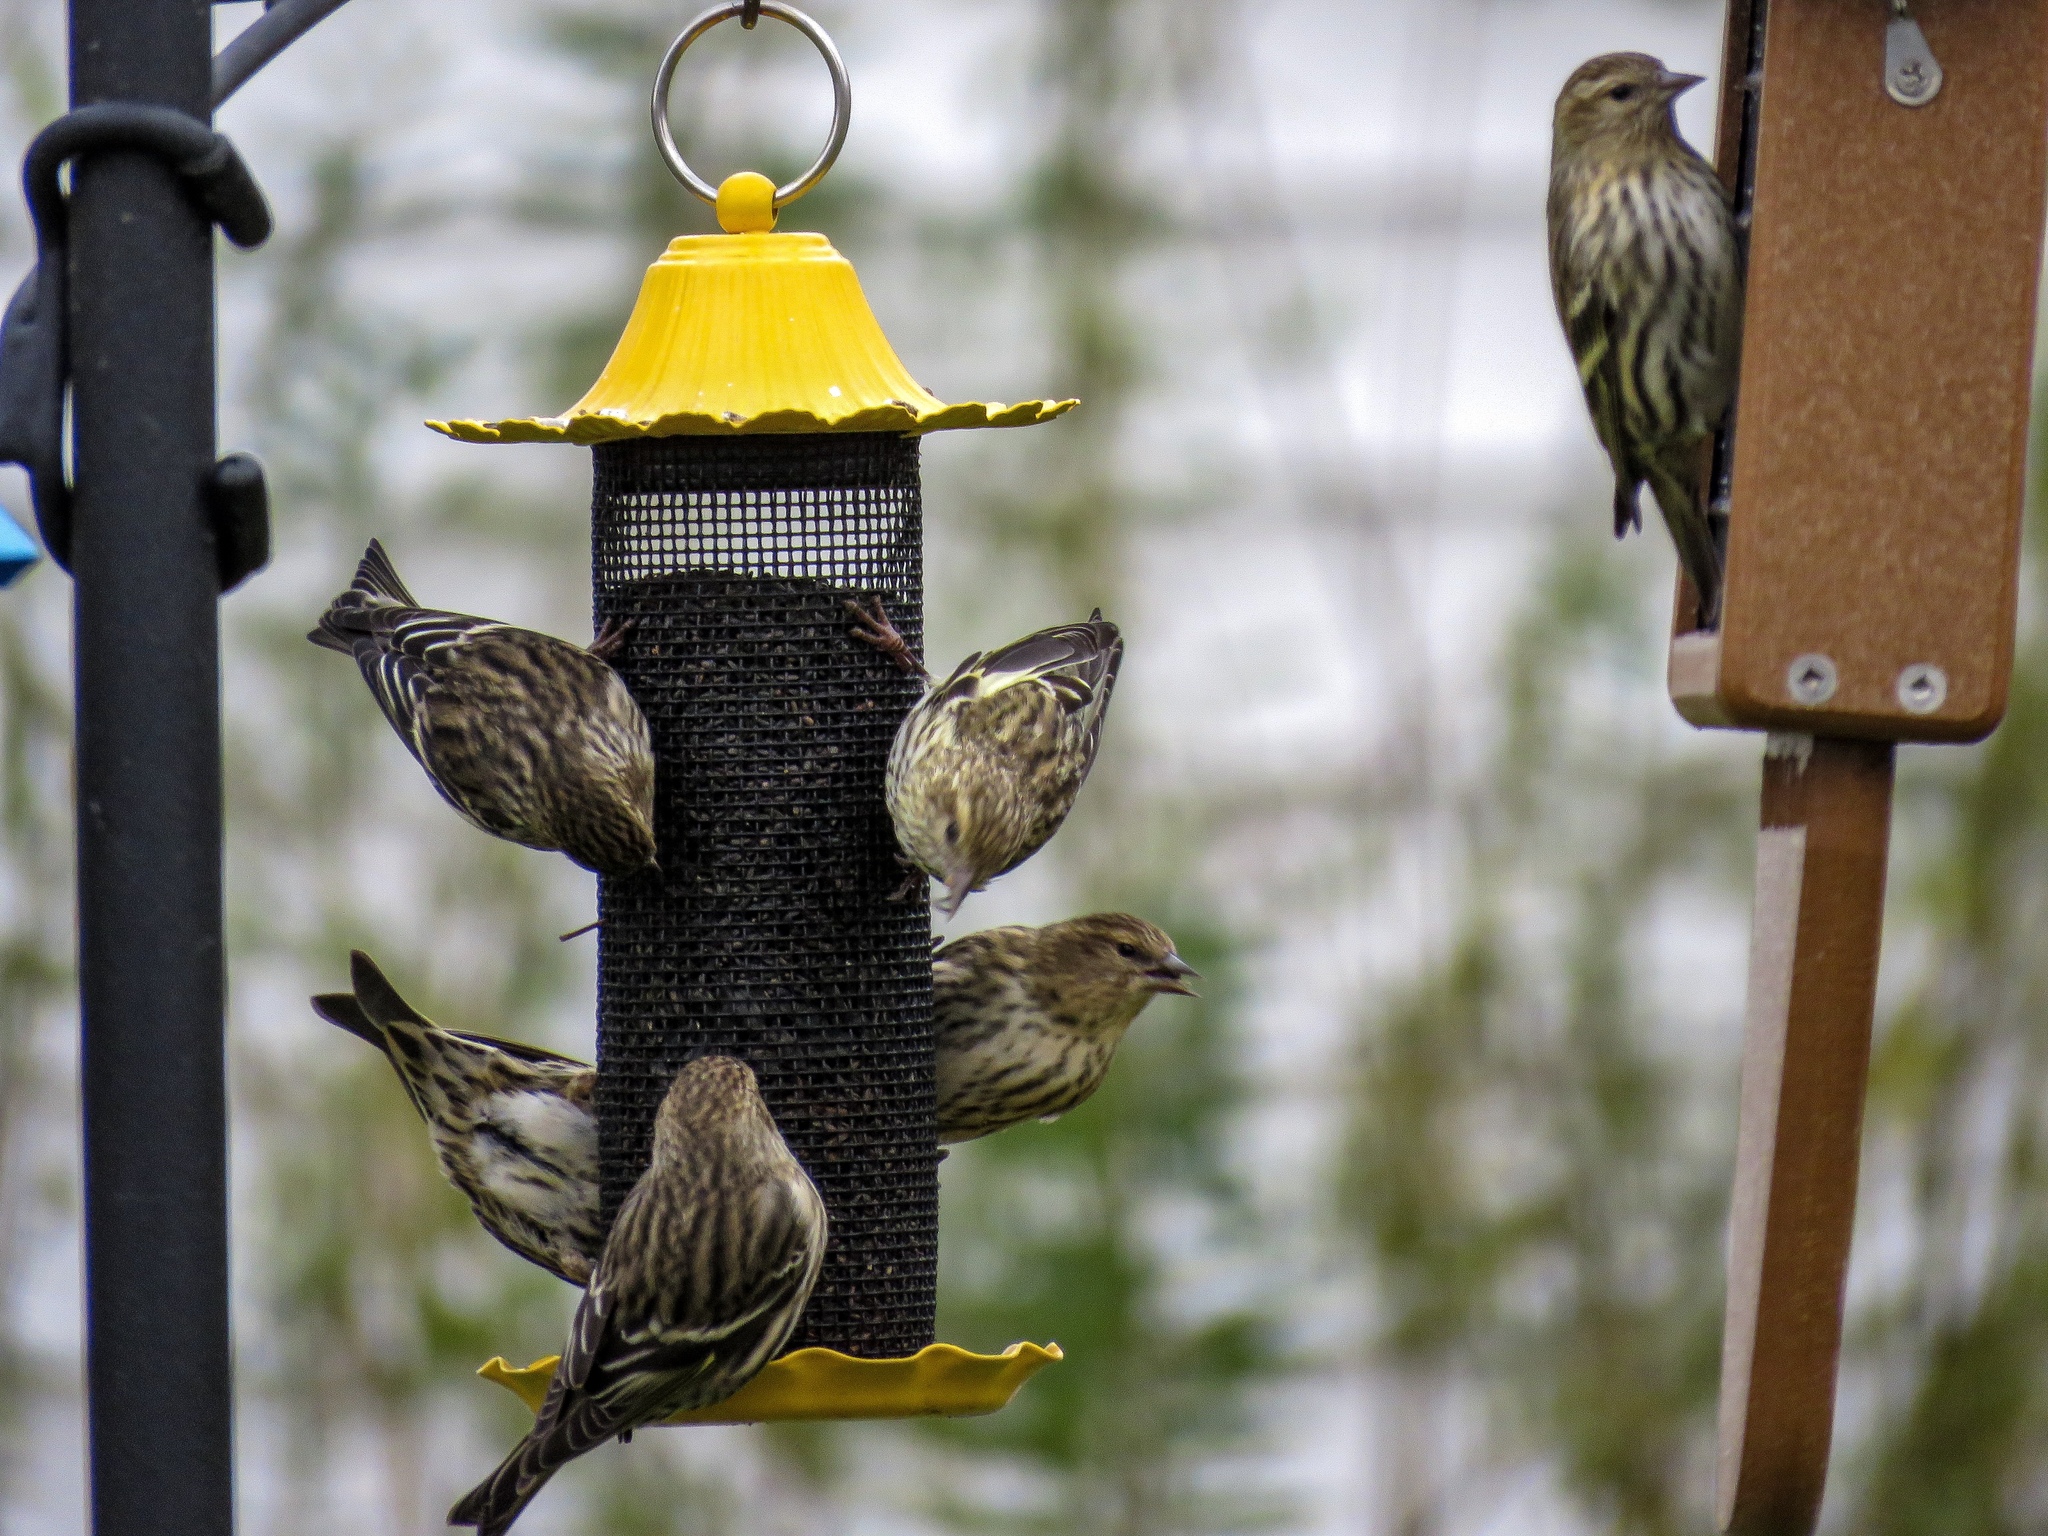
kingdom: Animalia
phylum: Chordata
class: Aves
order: Passeriformes
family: Fringillidae
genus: Spinus
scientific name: Spinus pinus
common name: Pine siskin
